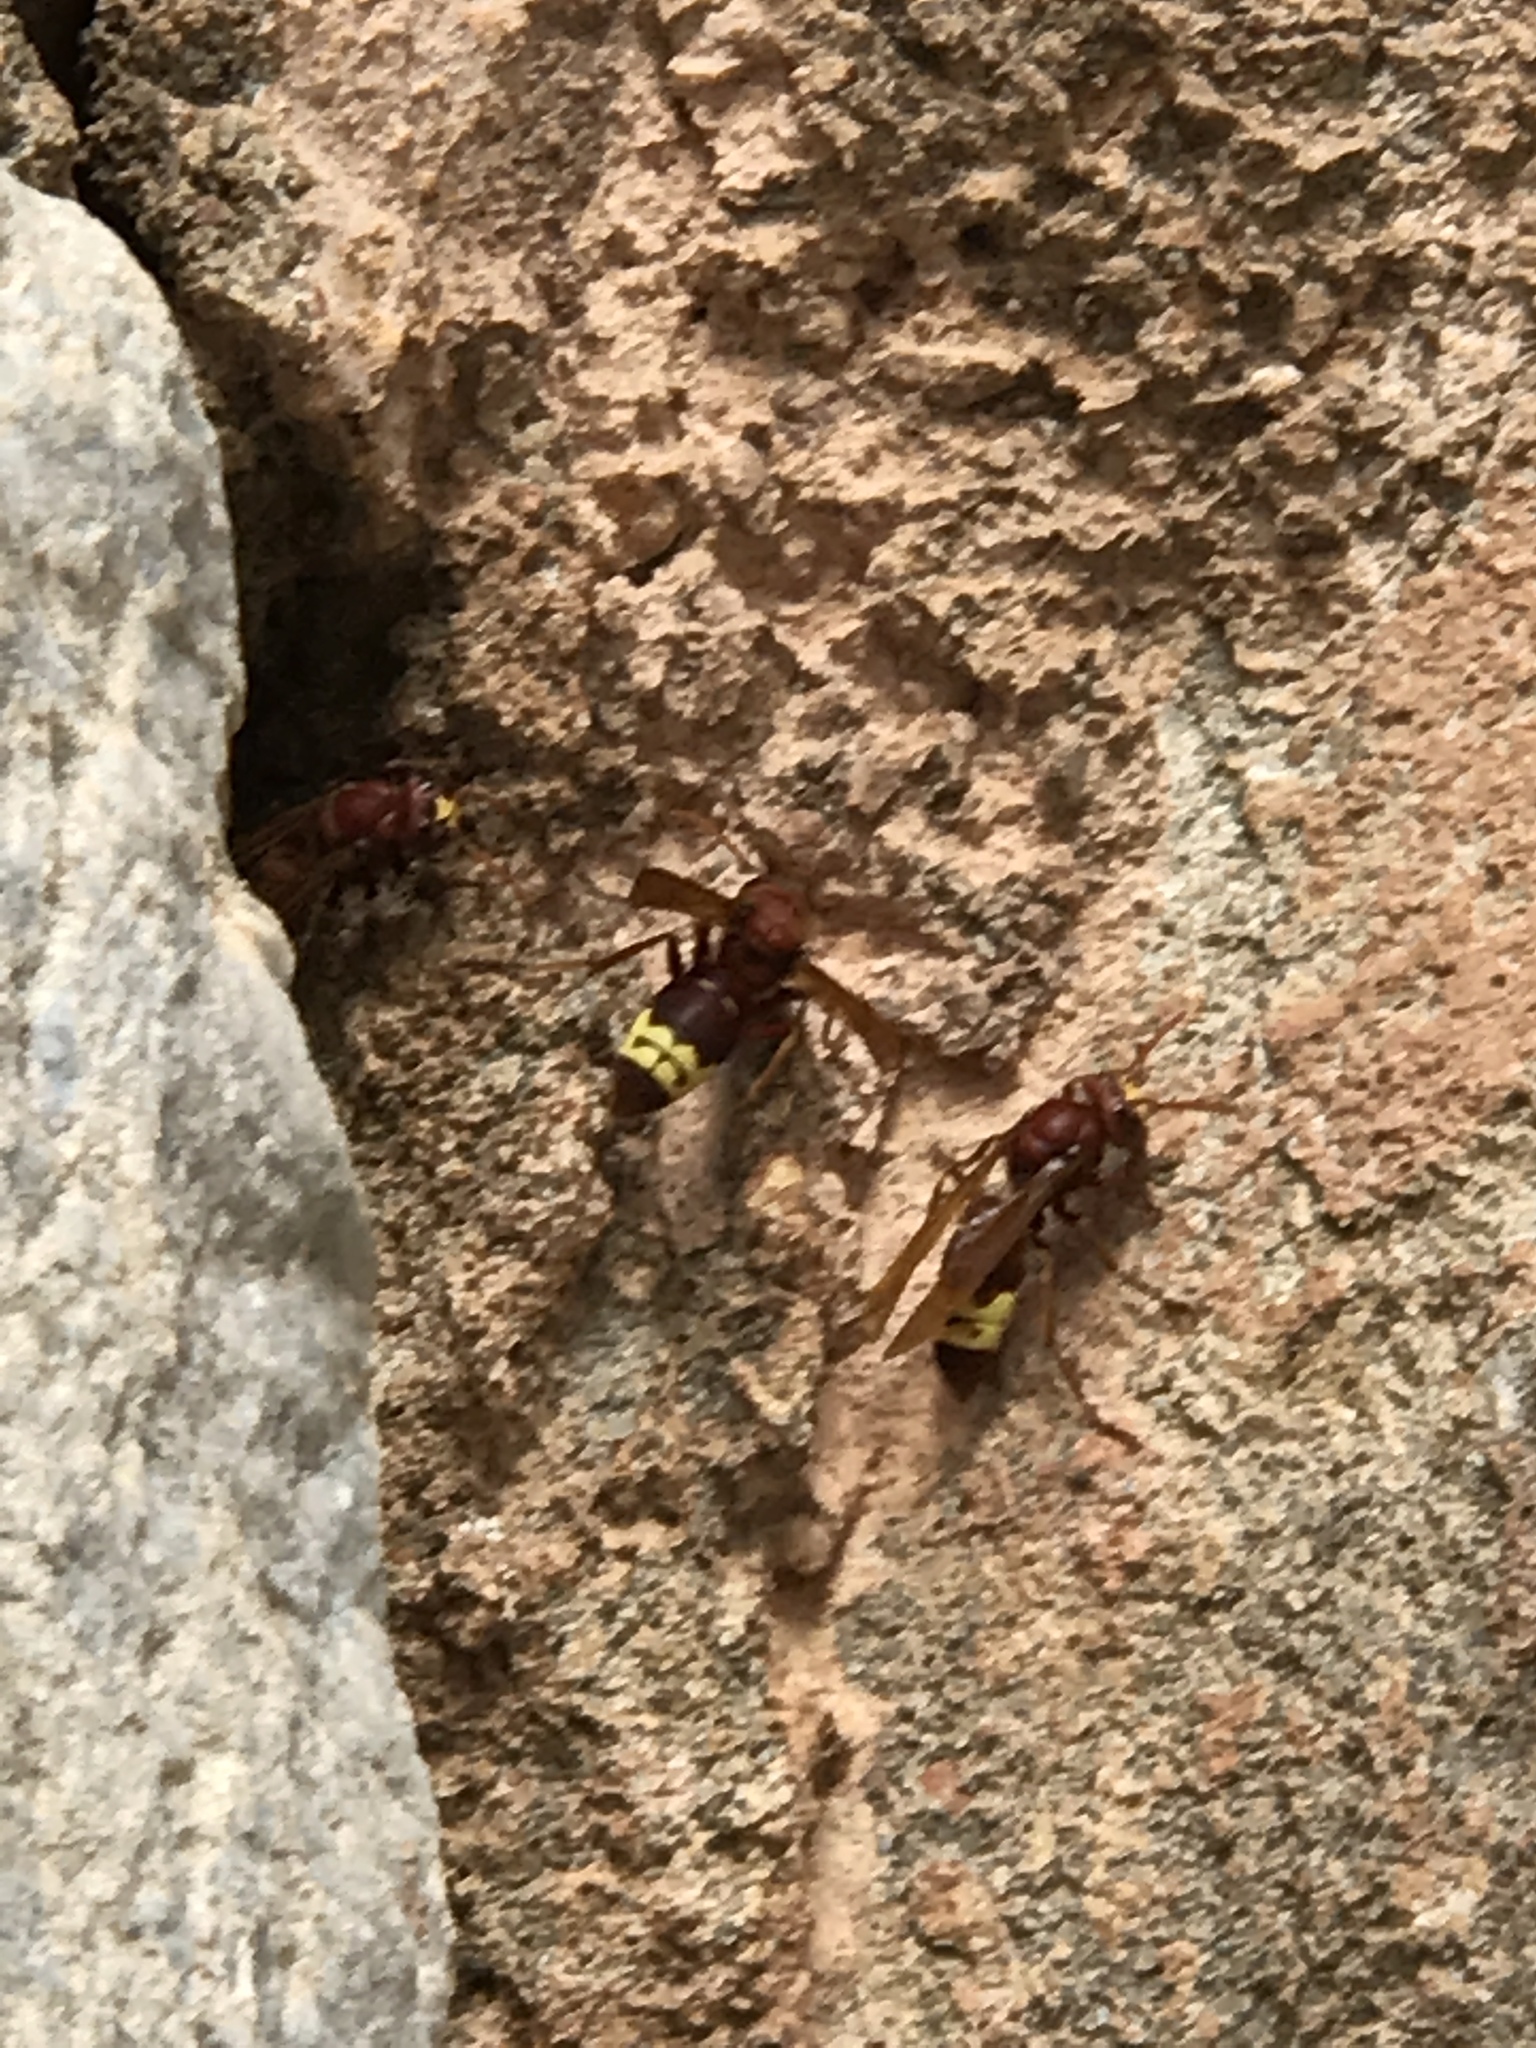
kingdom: Animalia
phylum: Arthropoda
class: Insecta
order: Hymenoptera
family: Vespidae
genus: Vespa
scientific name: Vespa orientalis
